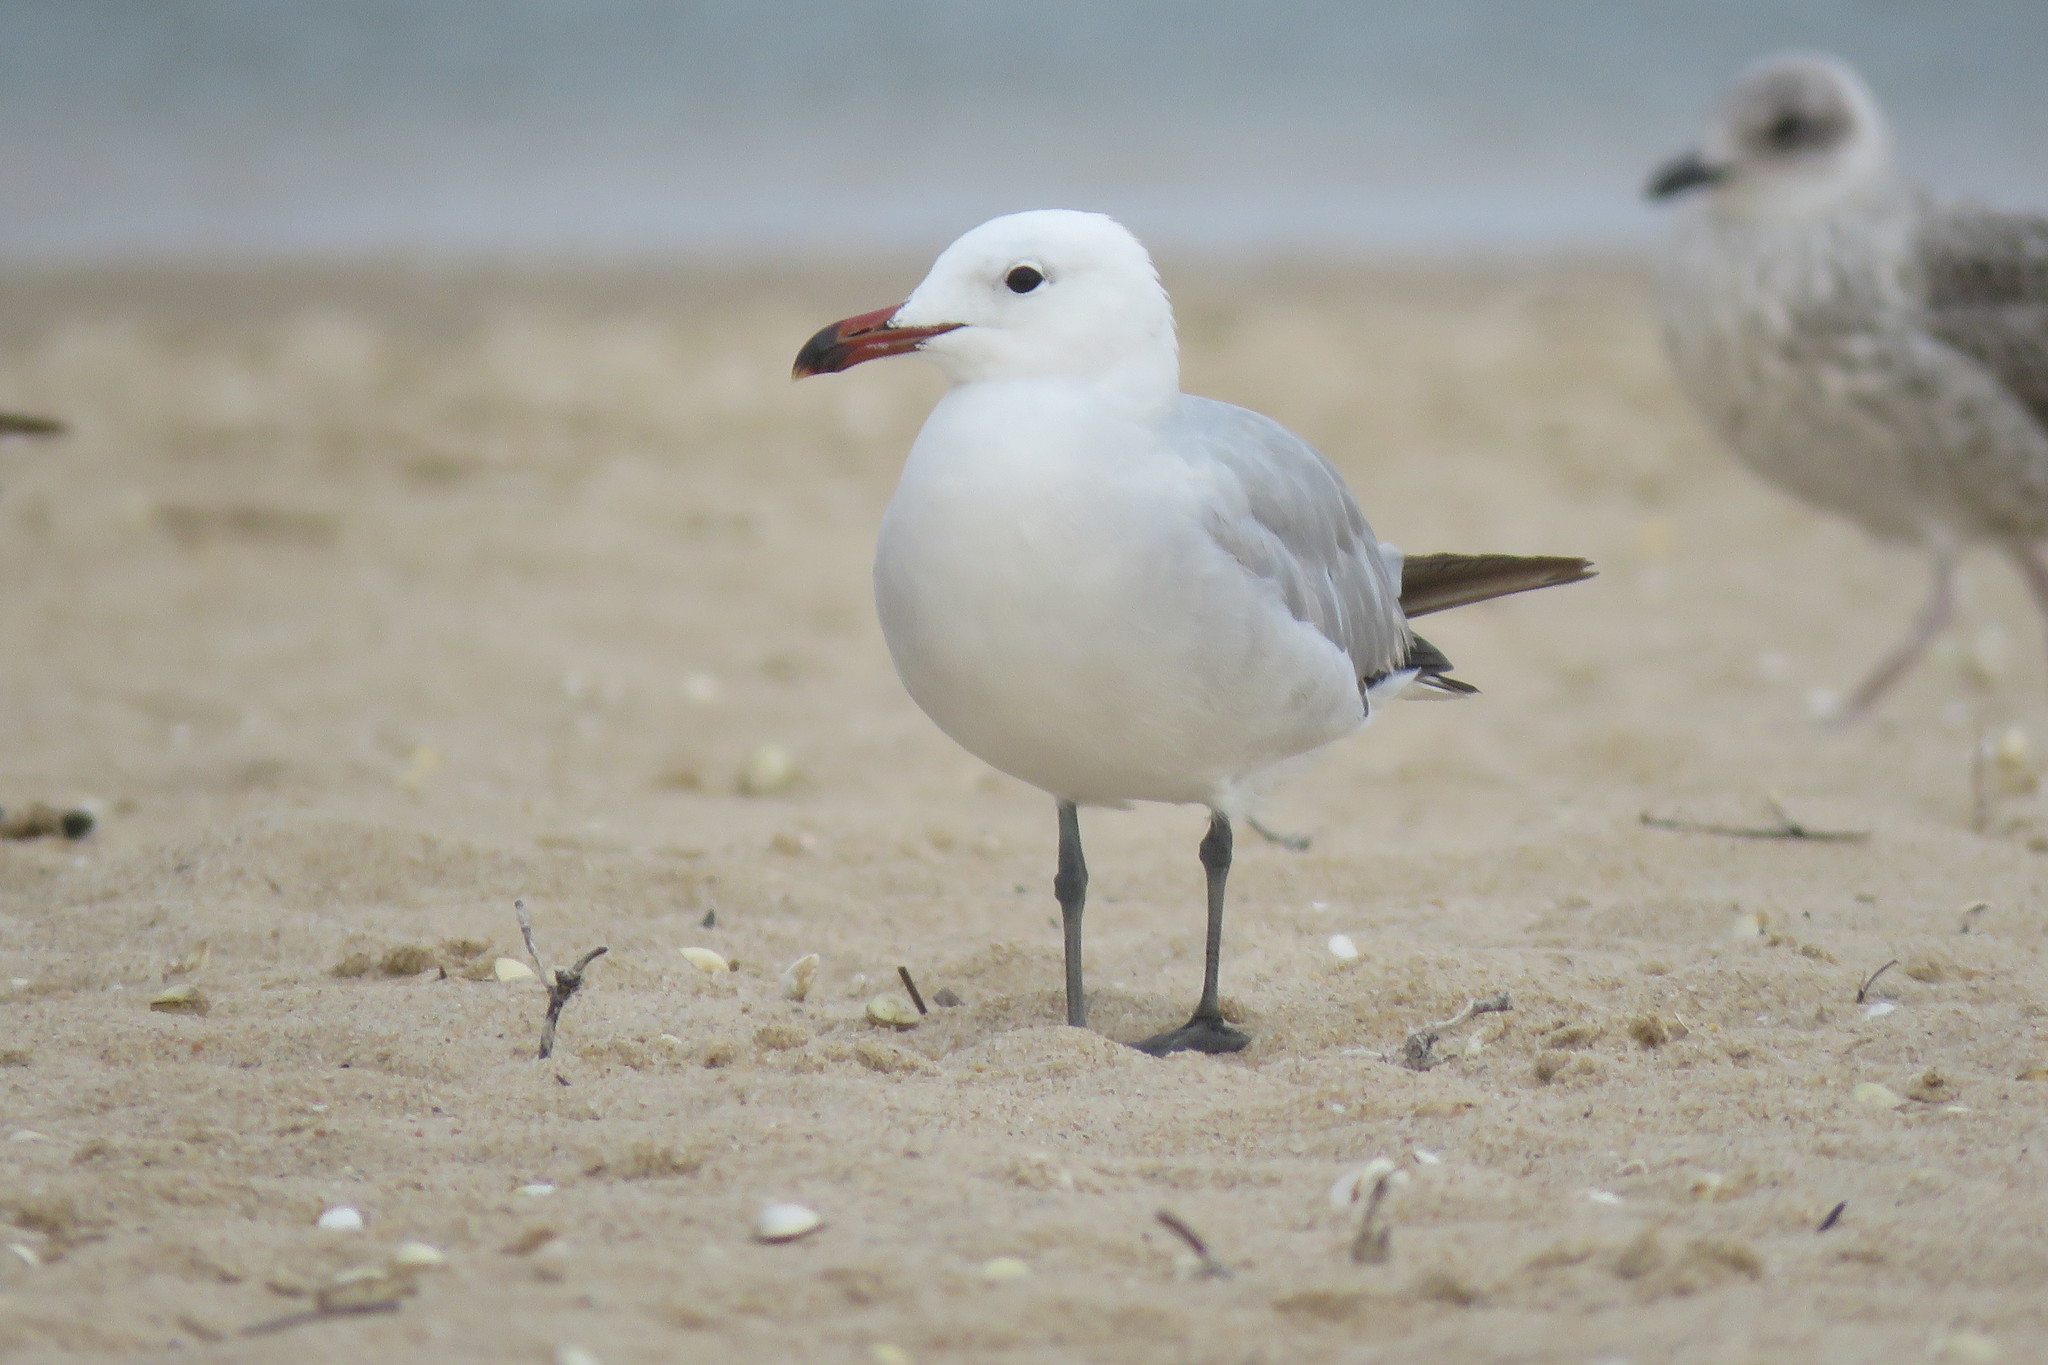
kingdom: Animalia
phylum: Chordata
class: Aves
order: Charadriiformes
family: Laridae
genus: Ichthyaetus
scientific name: Ichthyaetus audouinii
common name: Audouin's gull
